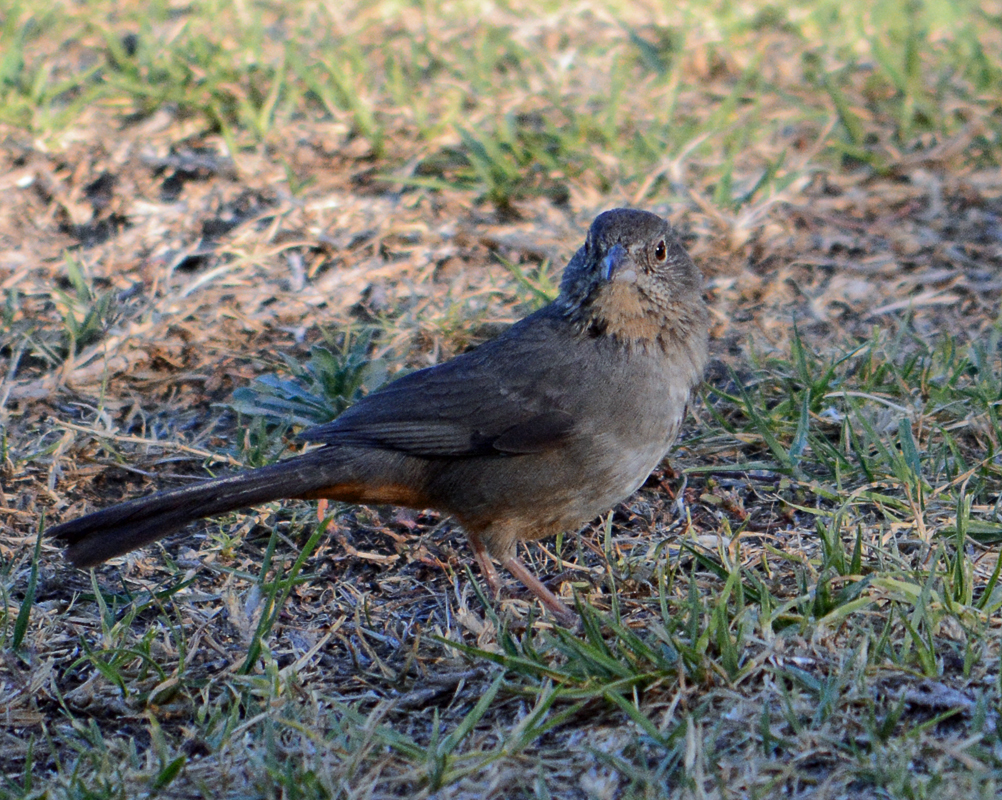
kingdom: Animalia
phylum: Chordata
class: Aves
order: Passeriformes
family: Passerellidae
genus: Melozone
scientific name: Melozone fusca
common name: Canyon towhee
